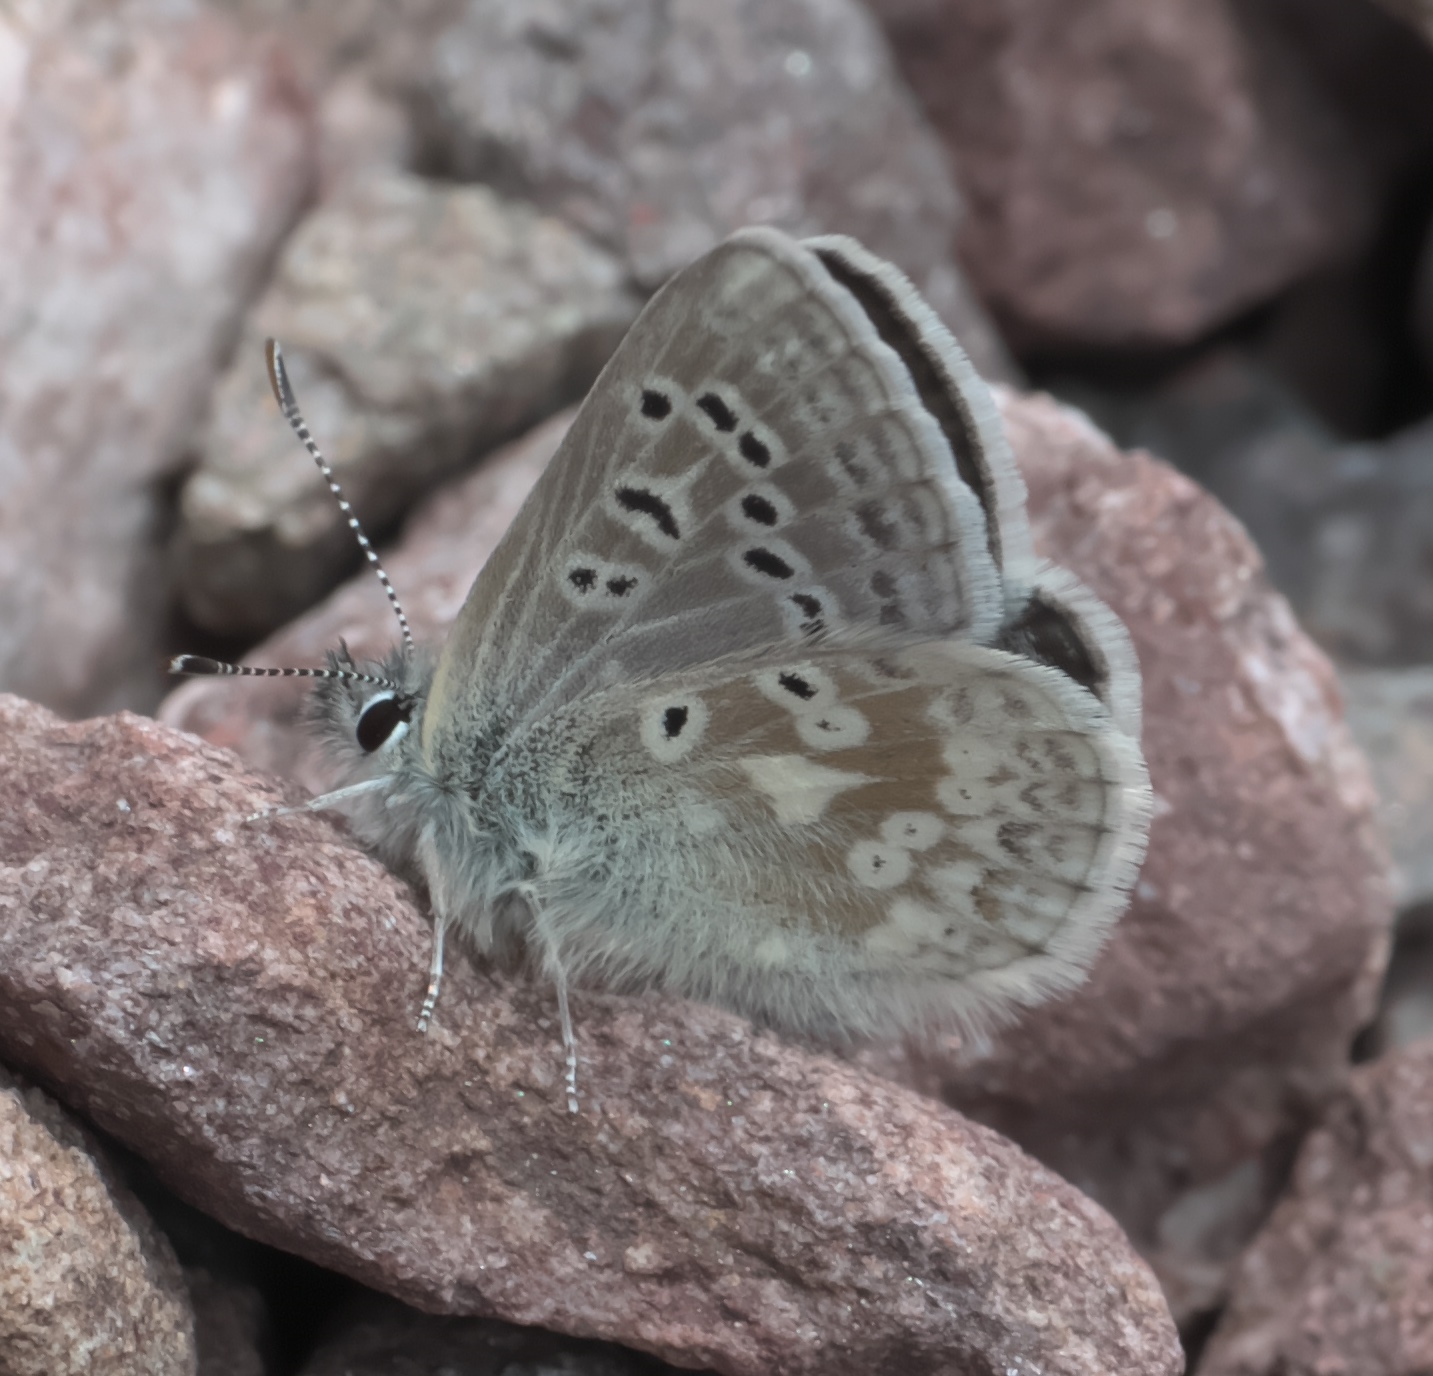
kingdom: Animalia
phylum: Arthropoda
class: Insecta
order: Lepidoptera
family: Lycaenidae
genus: Agriades
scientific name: Agriades glandon
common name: Glandon blue
